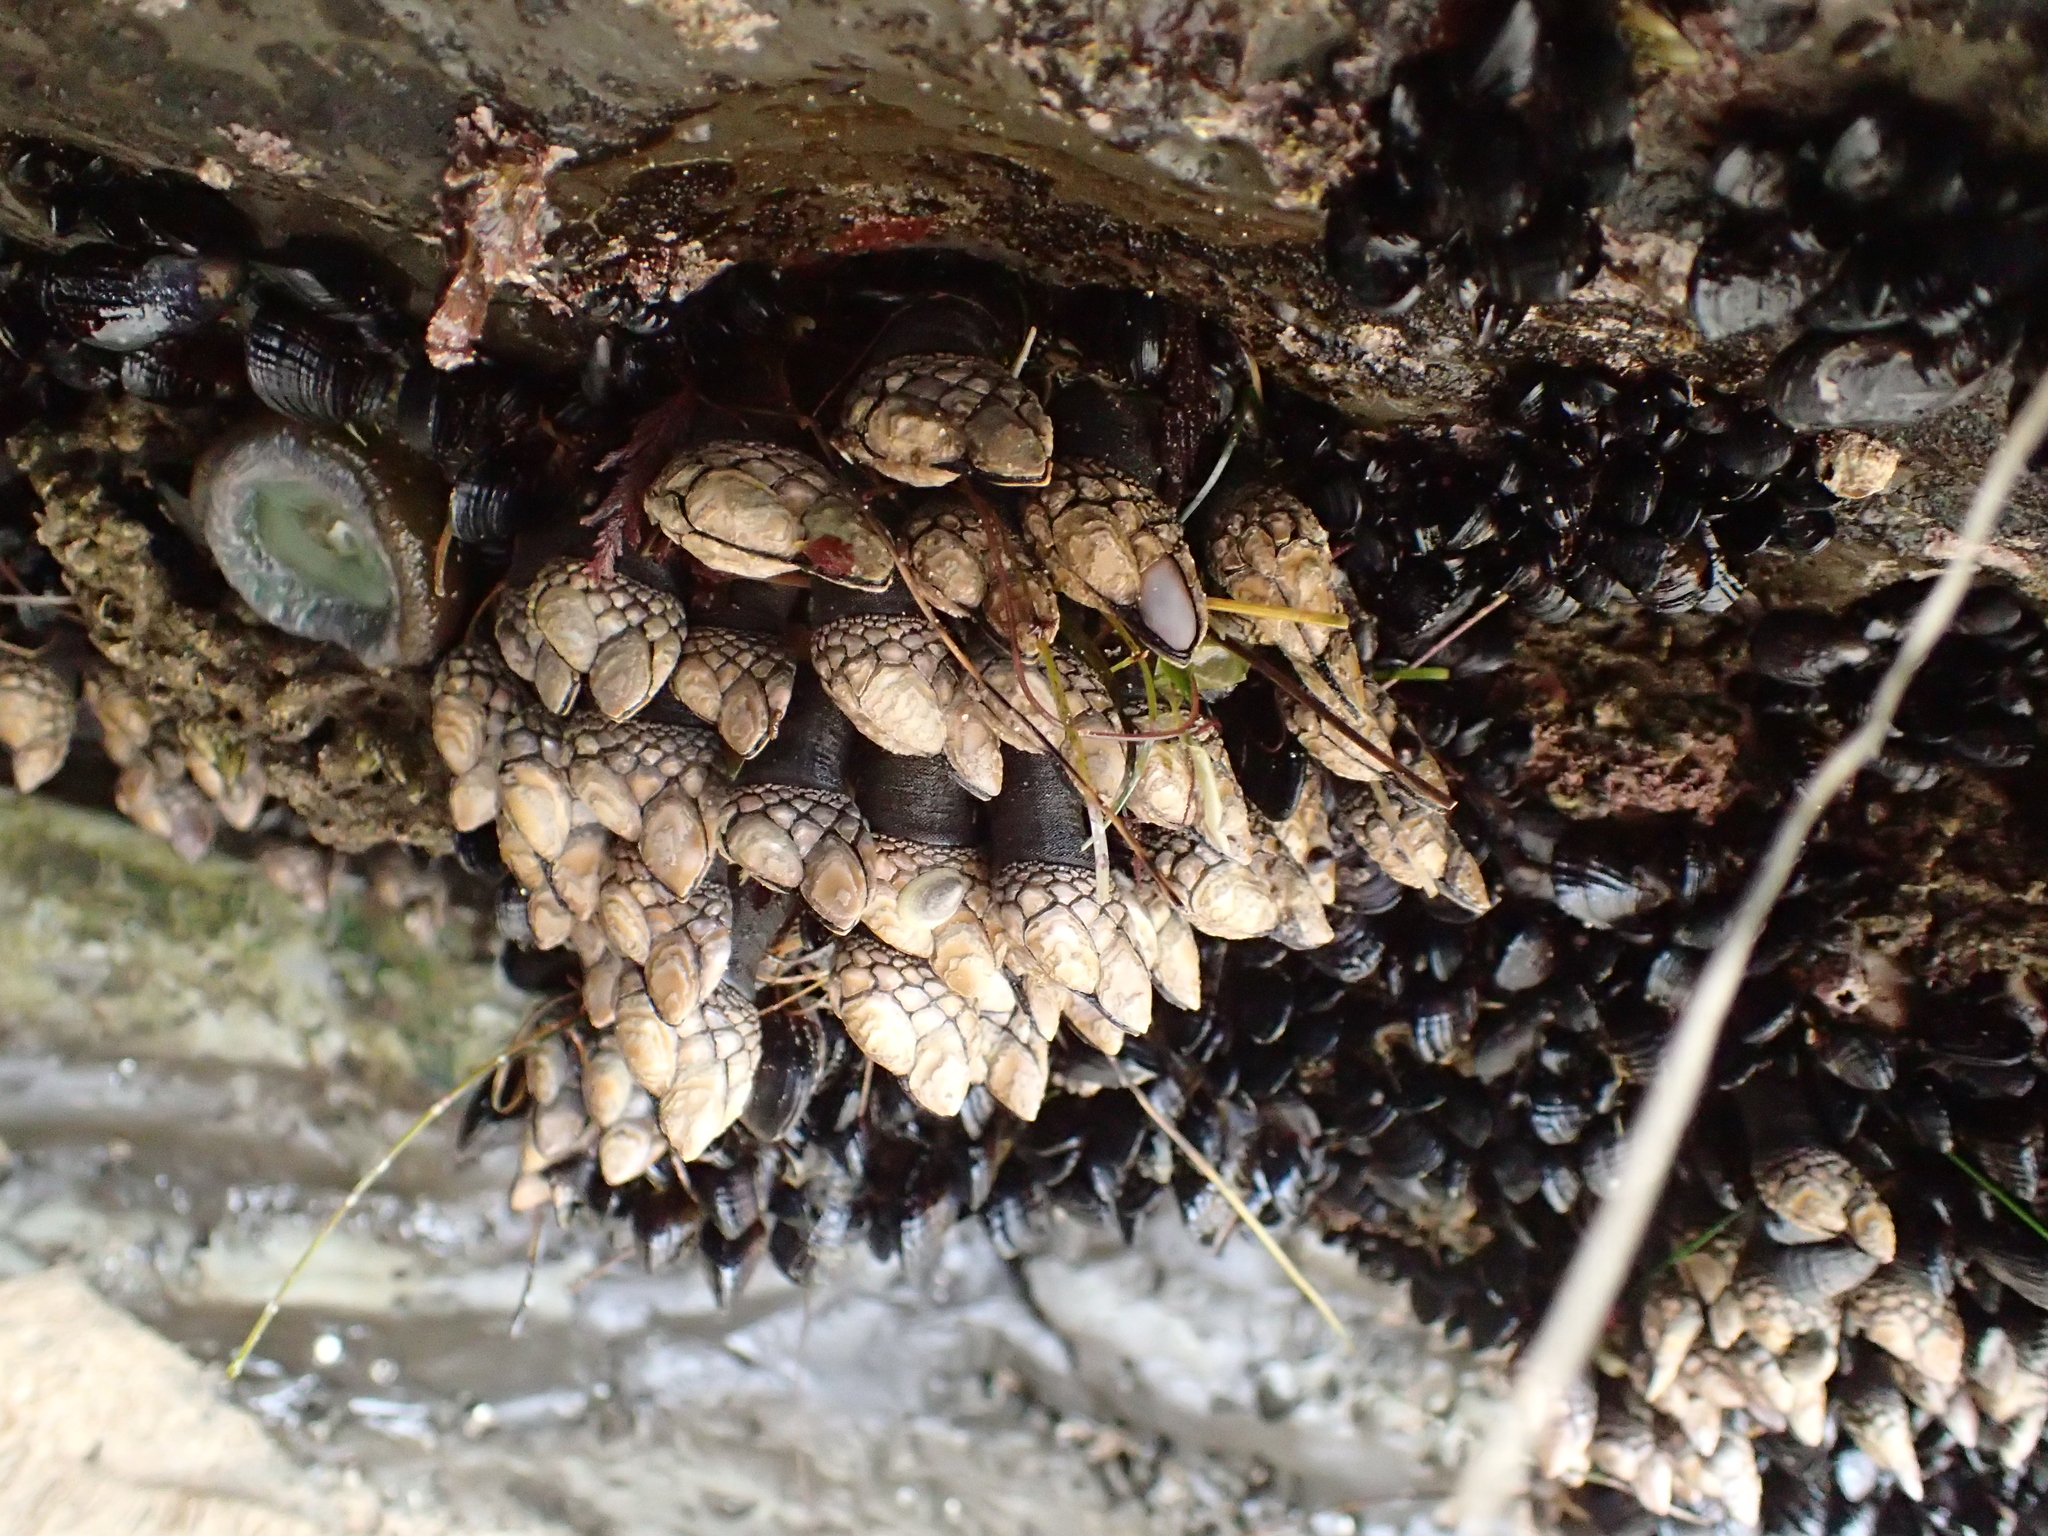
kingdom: Animalia
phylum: Arthropoda
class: Maxillopoda
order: Pedunculata
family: Pollicipedidae
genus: Pollicipes
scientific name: Pollicipes polymerus
